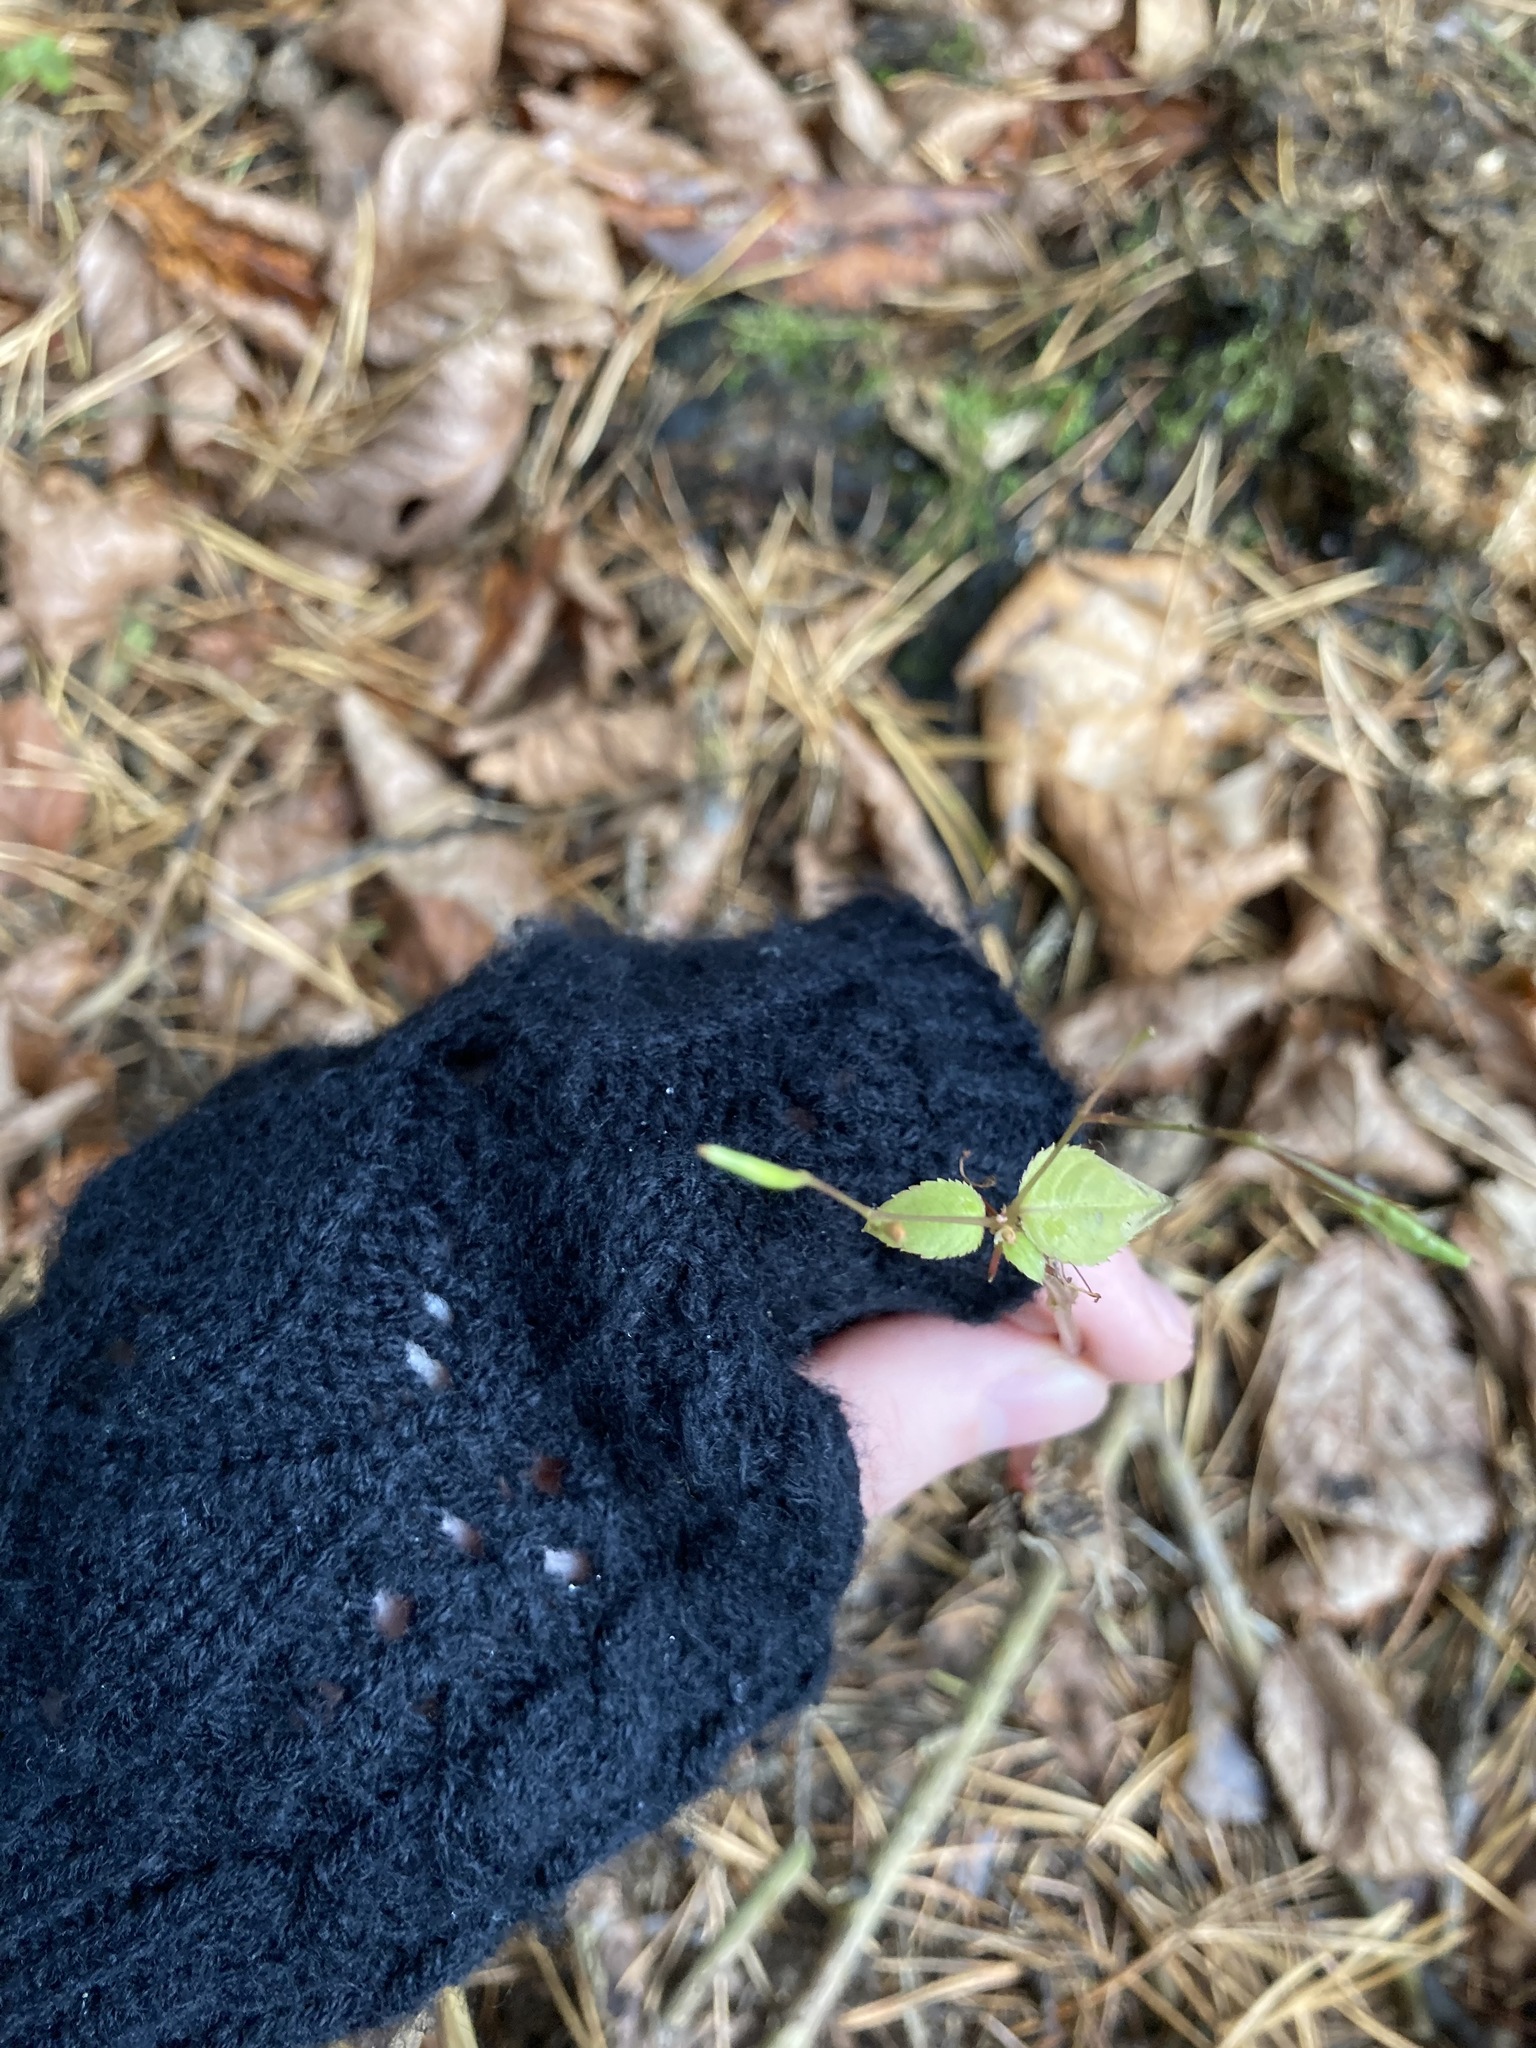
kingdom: Plantae
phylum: Tracheophyta
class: Magnoliopsida
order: Ericales
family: Balsaminaceae
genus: Impatiens
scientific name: Impatiens parviflora
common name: Small balsam
